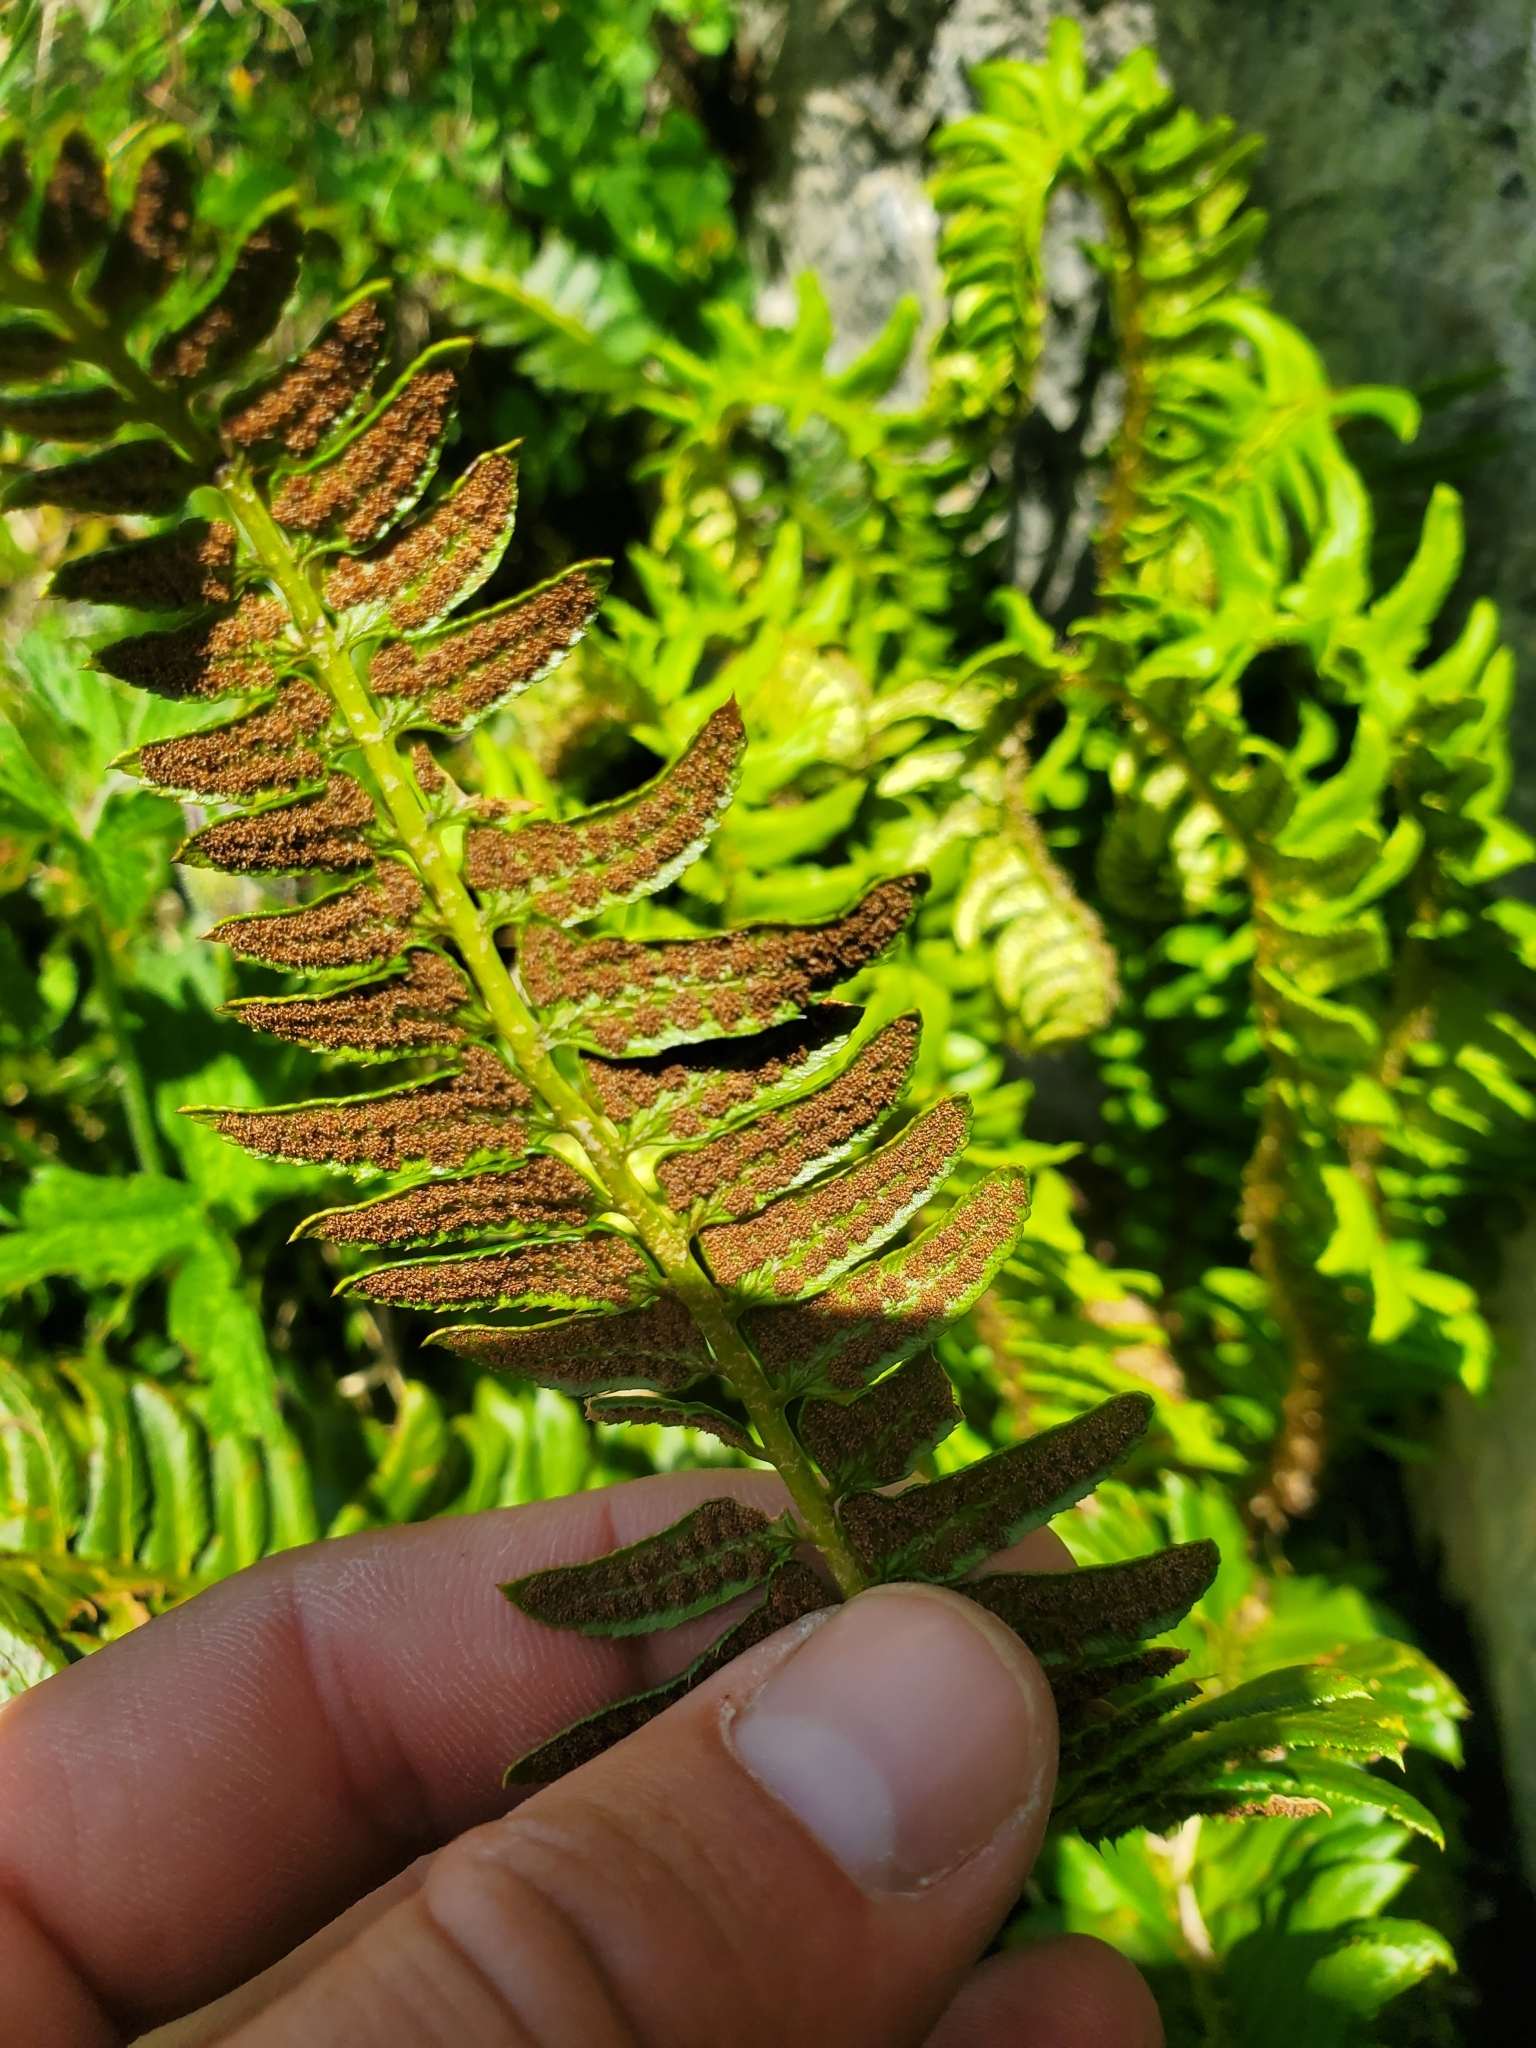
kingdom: Plantae
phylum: Tracheophyta
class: Polypodiopsida
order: Polypodiales
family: Dryopteridaceae
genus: Polystichum
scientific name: Polystichum lonchitis
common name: Holly fern
